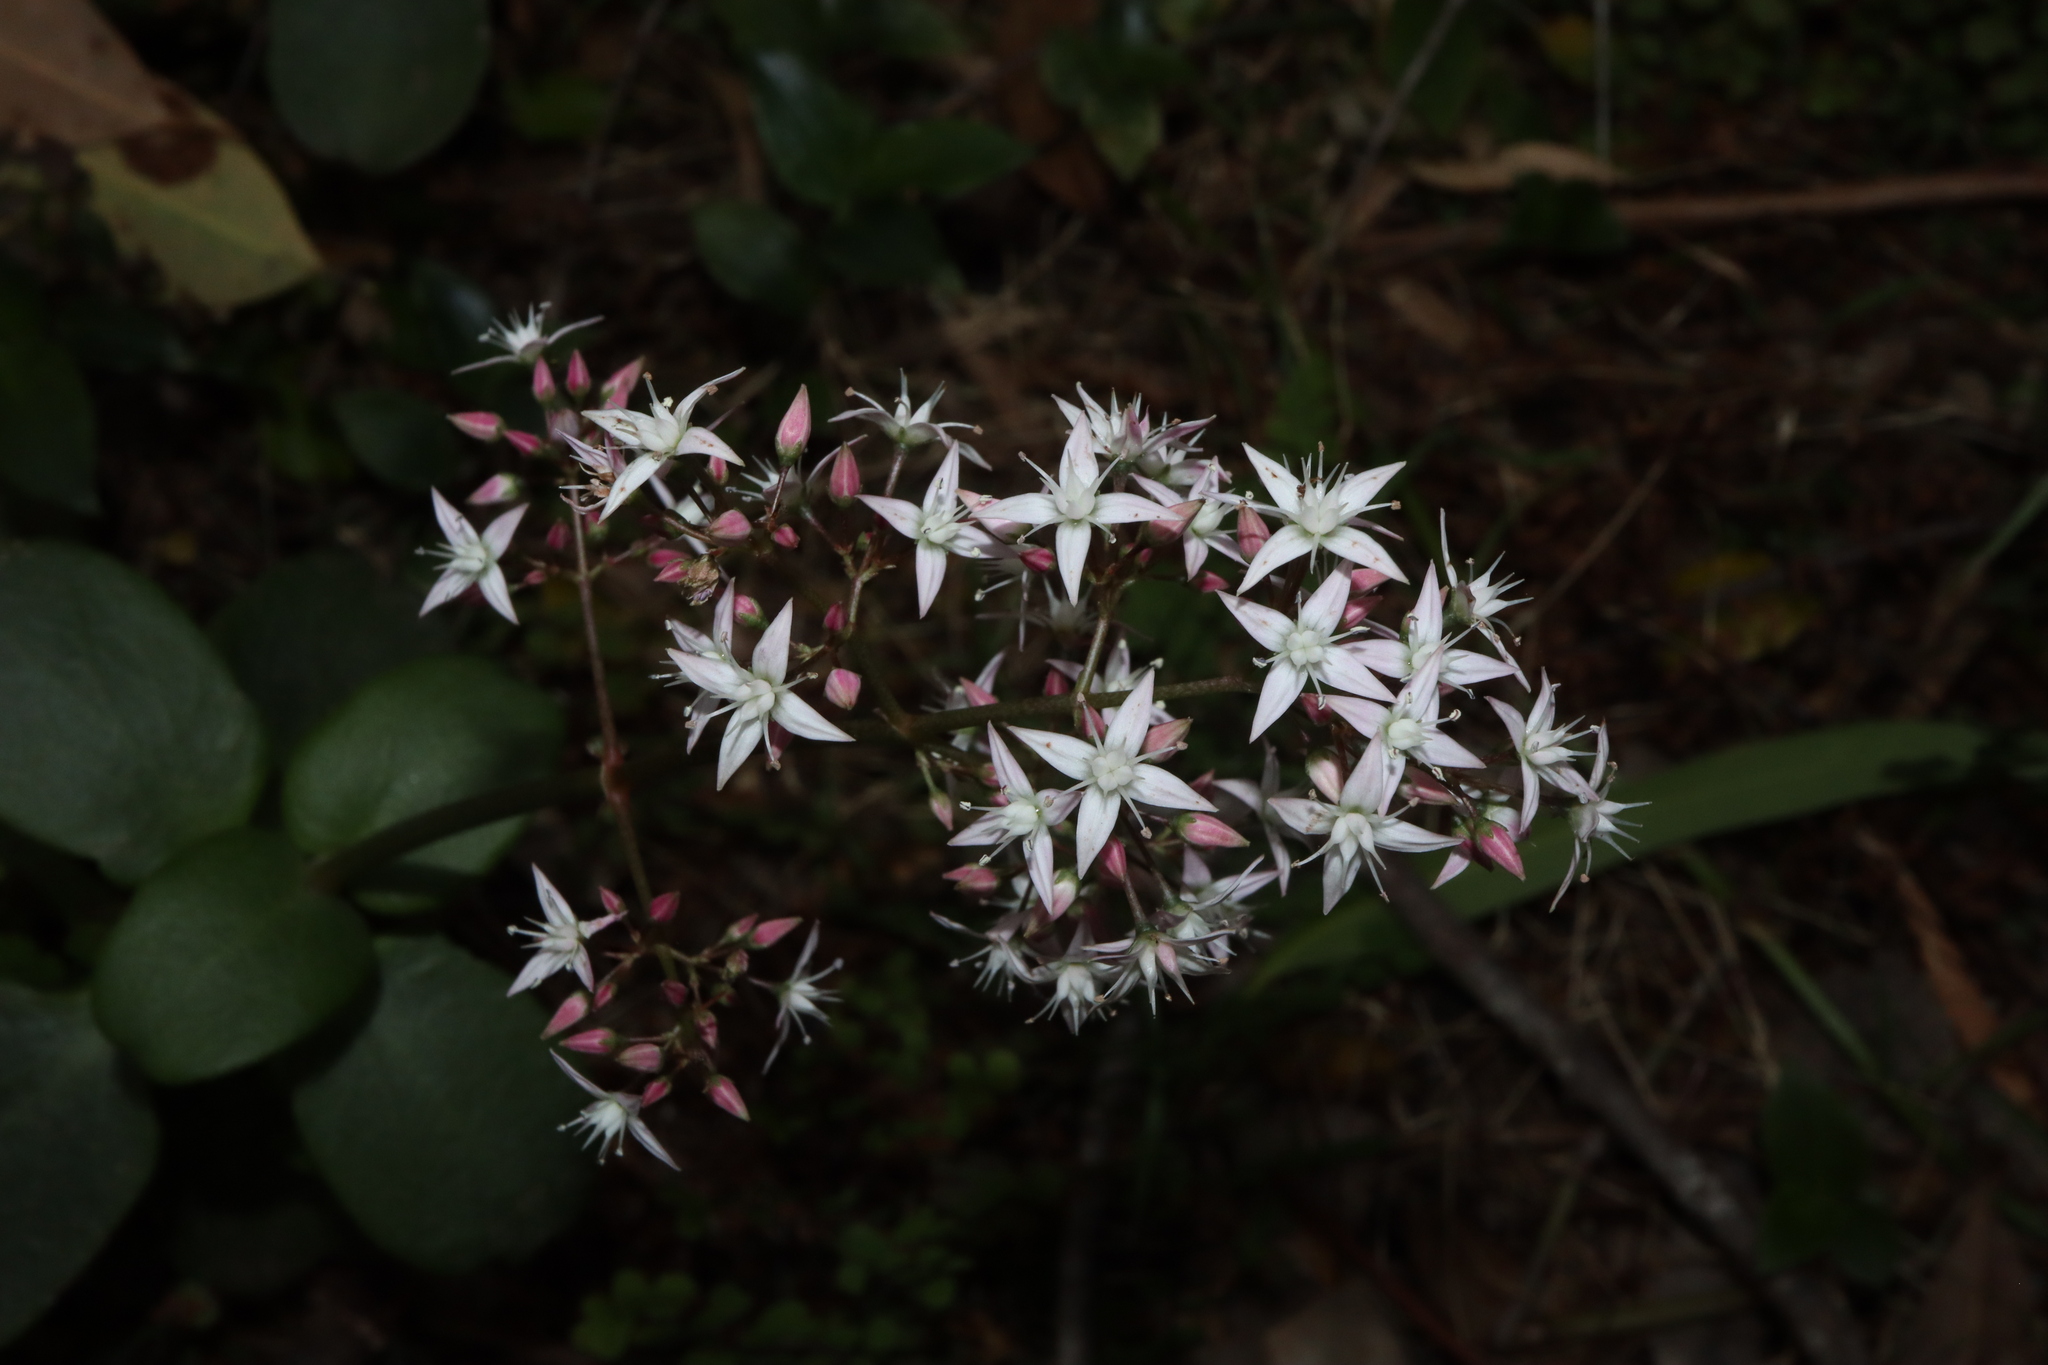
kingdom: Plantae
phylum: Tracheophyta
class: Magnoliopsida
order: Saxifragales
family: Crassulaceae
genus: Crassula
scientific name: Crassula multicava
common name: Cape province pygmyweed
